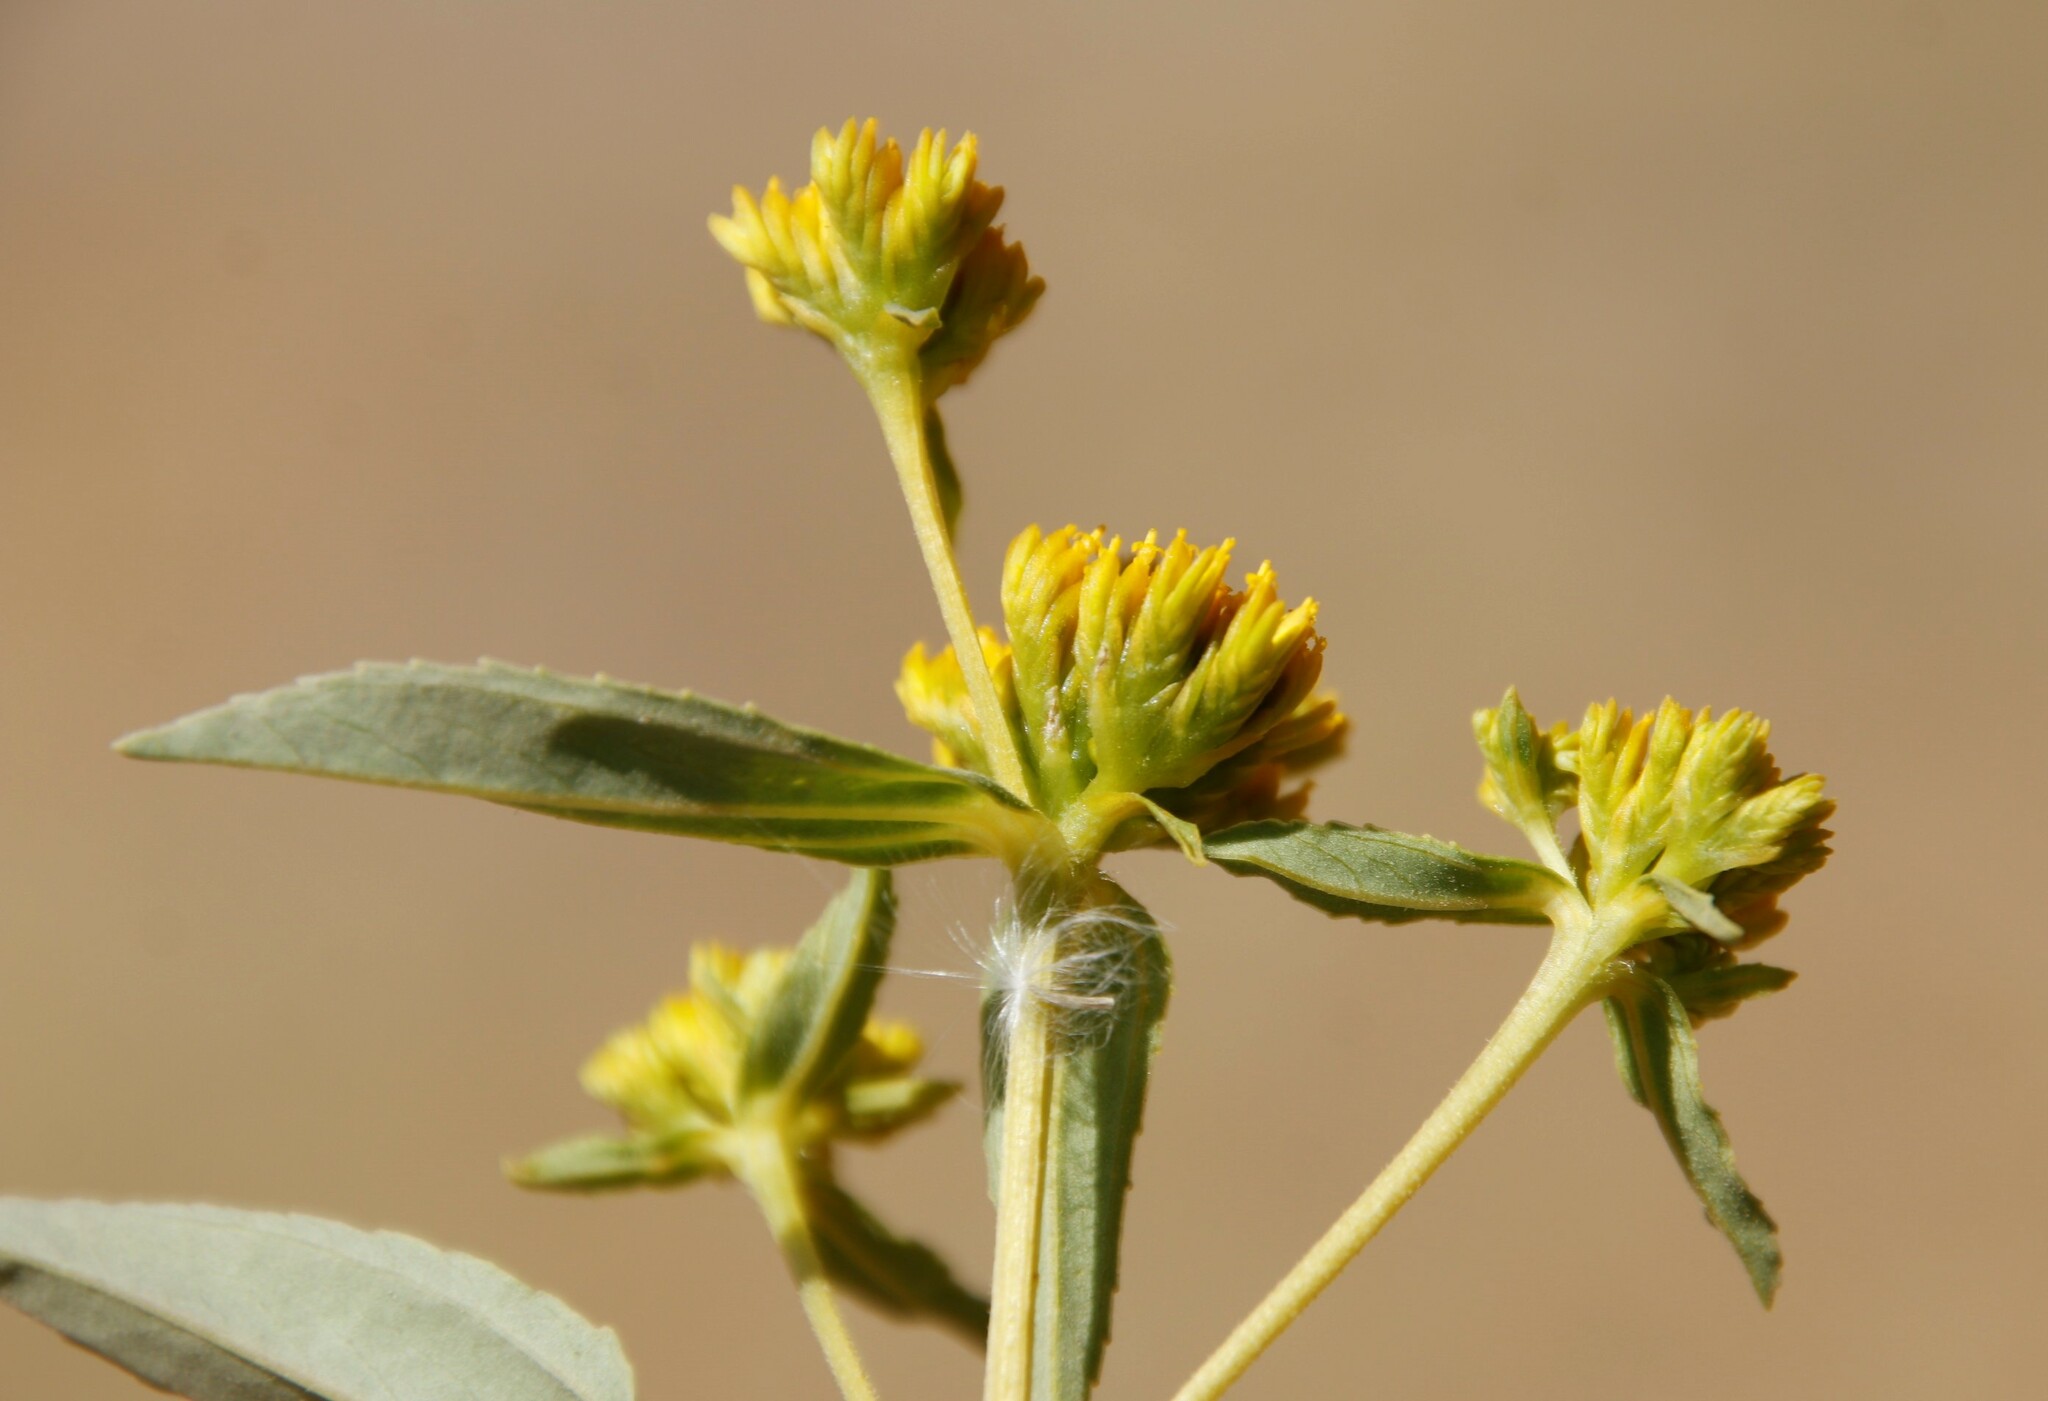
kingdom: Plantae
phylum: Tracheophyta
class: Magnoliopsida
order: Asterales
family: Asteraceae
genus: Flaveria
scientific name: Flaveria bidentis
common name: Coastal plain yellowtops
